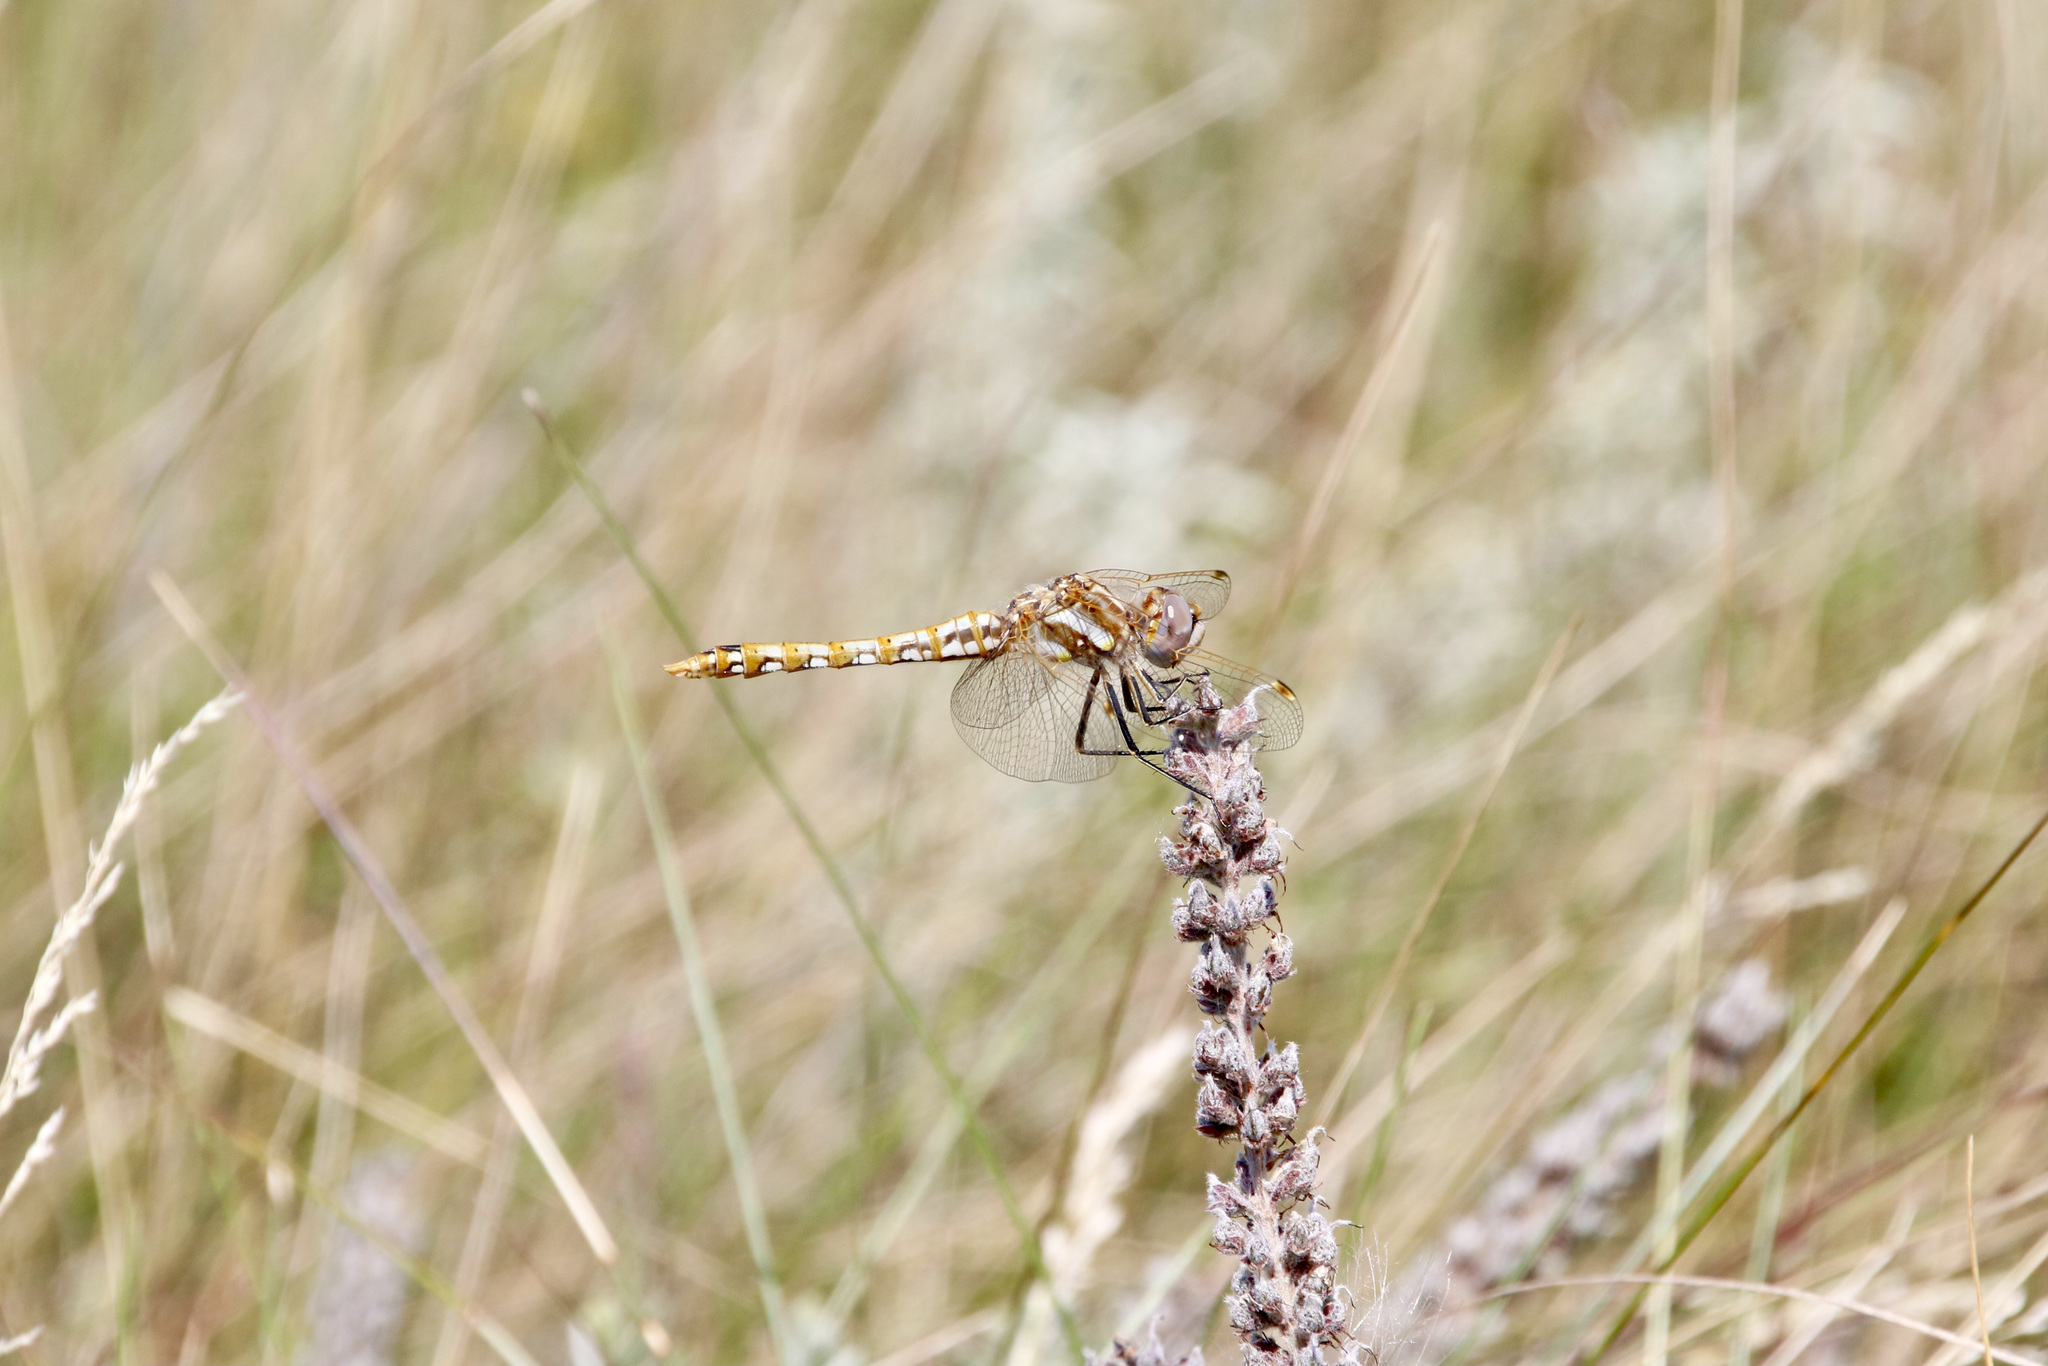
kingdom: Animalia
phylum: Arthropoda
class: Insecta
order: Odonata
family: Libellulidae
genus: Sympetrum
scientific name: Sympetrum corruptum
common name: Variegated meadowhawk
